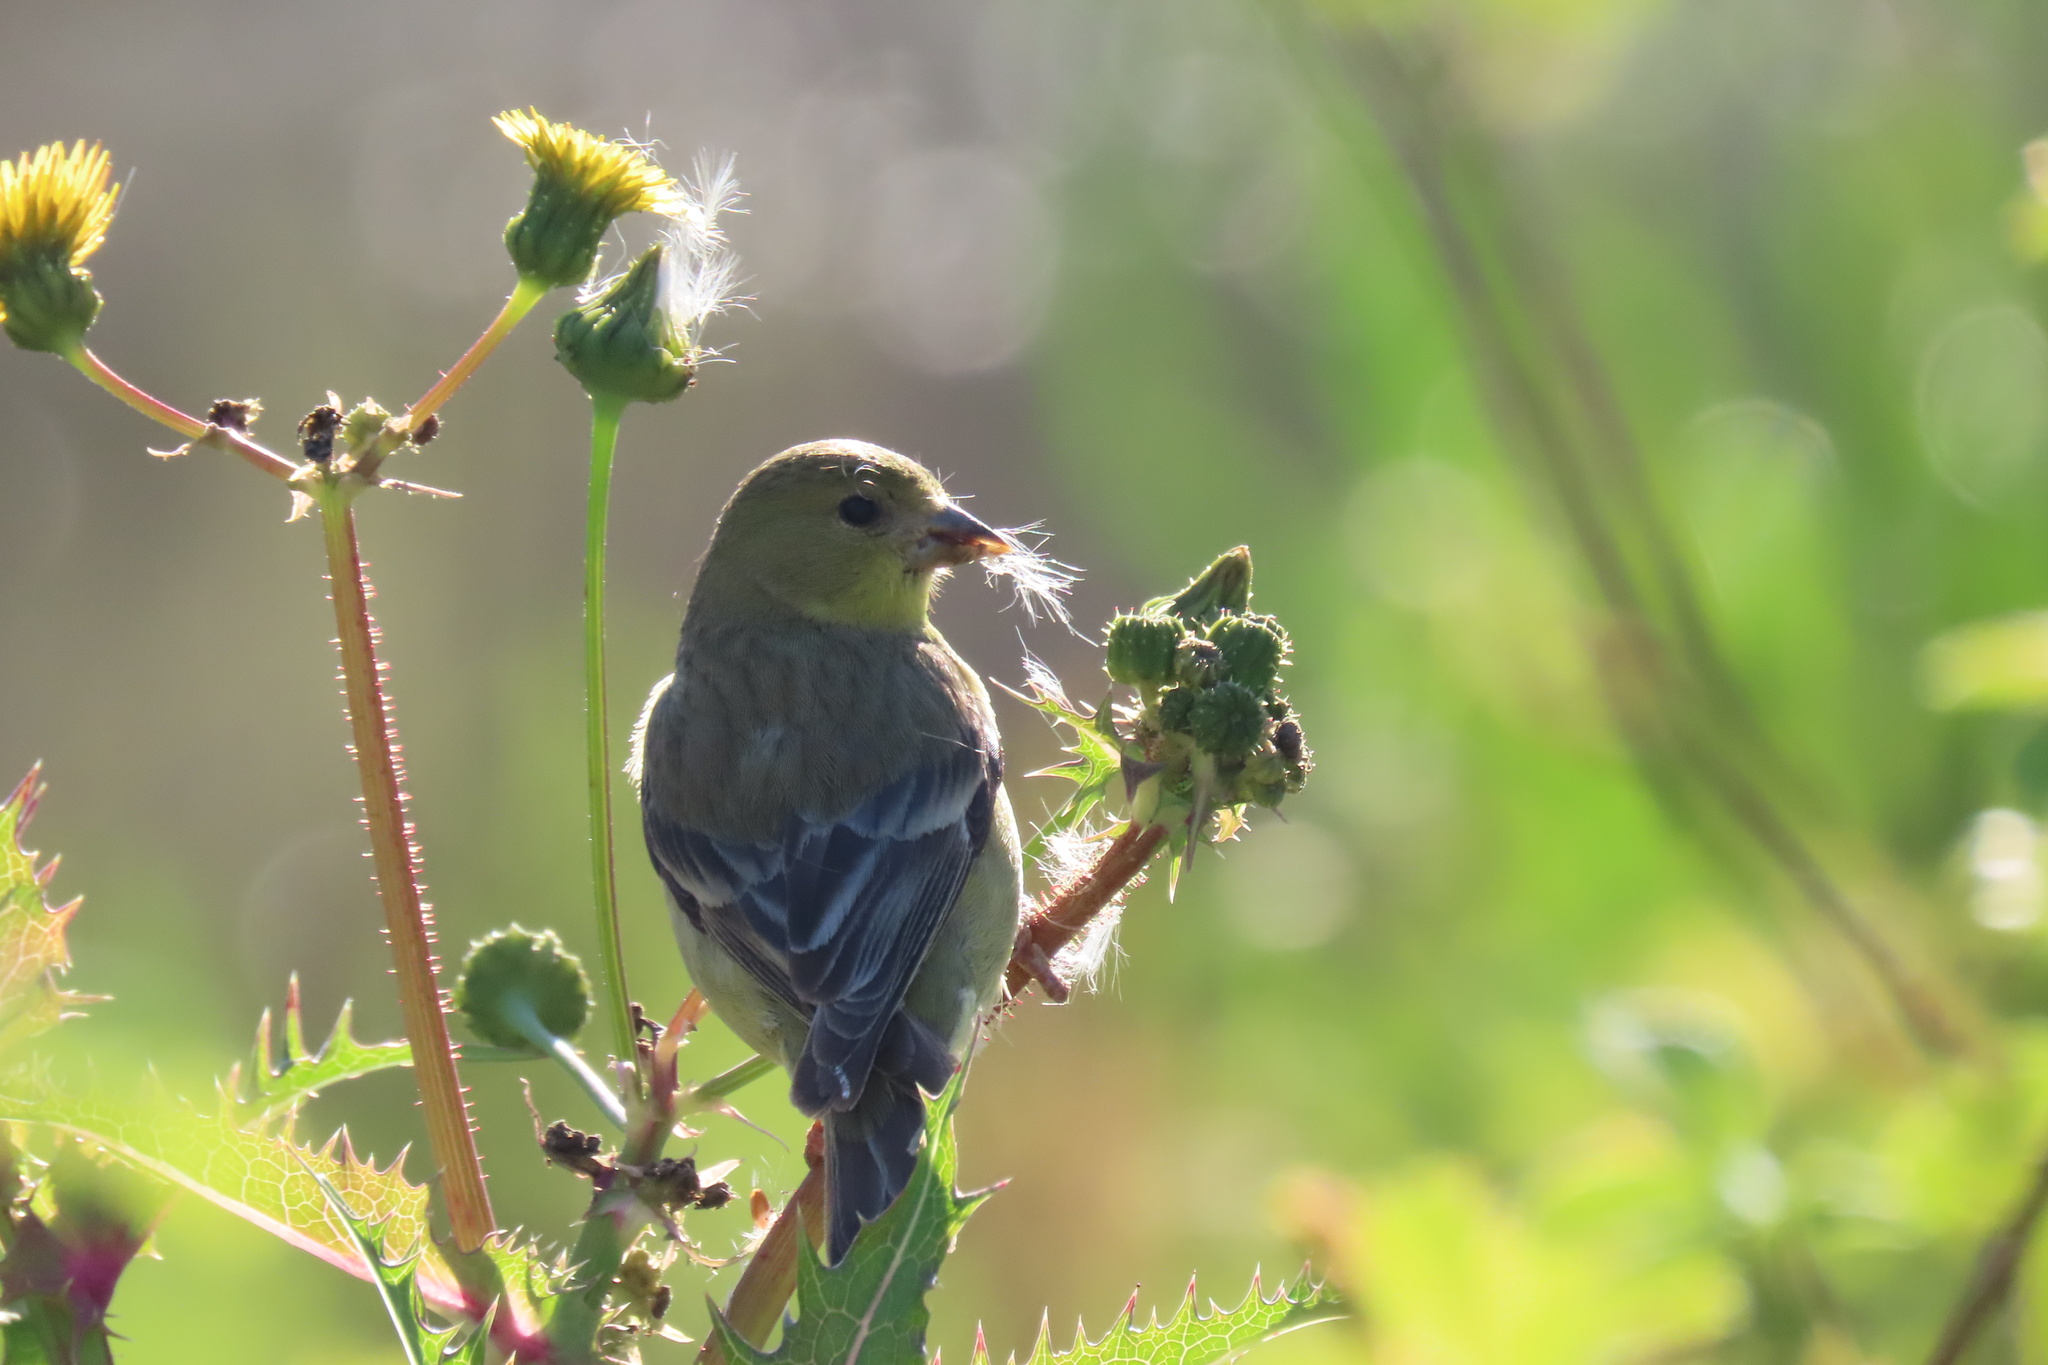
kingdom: Animalia
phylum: Chordata
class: Aves
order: Passeriformes
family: Fringillidae
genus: Spinus
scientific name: Spinus psaltria
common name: Lesser goldfinch
